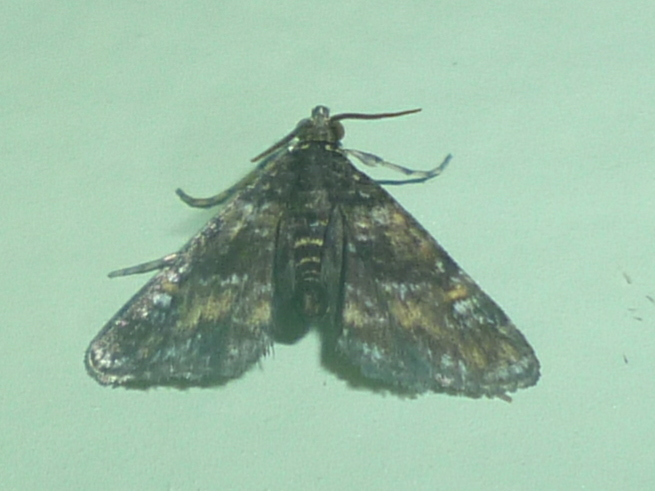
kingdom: Animalia
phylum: Arthropoda
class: Insecta
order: Lepidoptera
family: Crambidae
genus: Elophila
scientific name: Elophila obliteralis
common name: Waterlily leafcutter moth
